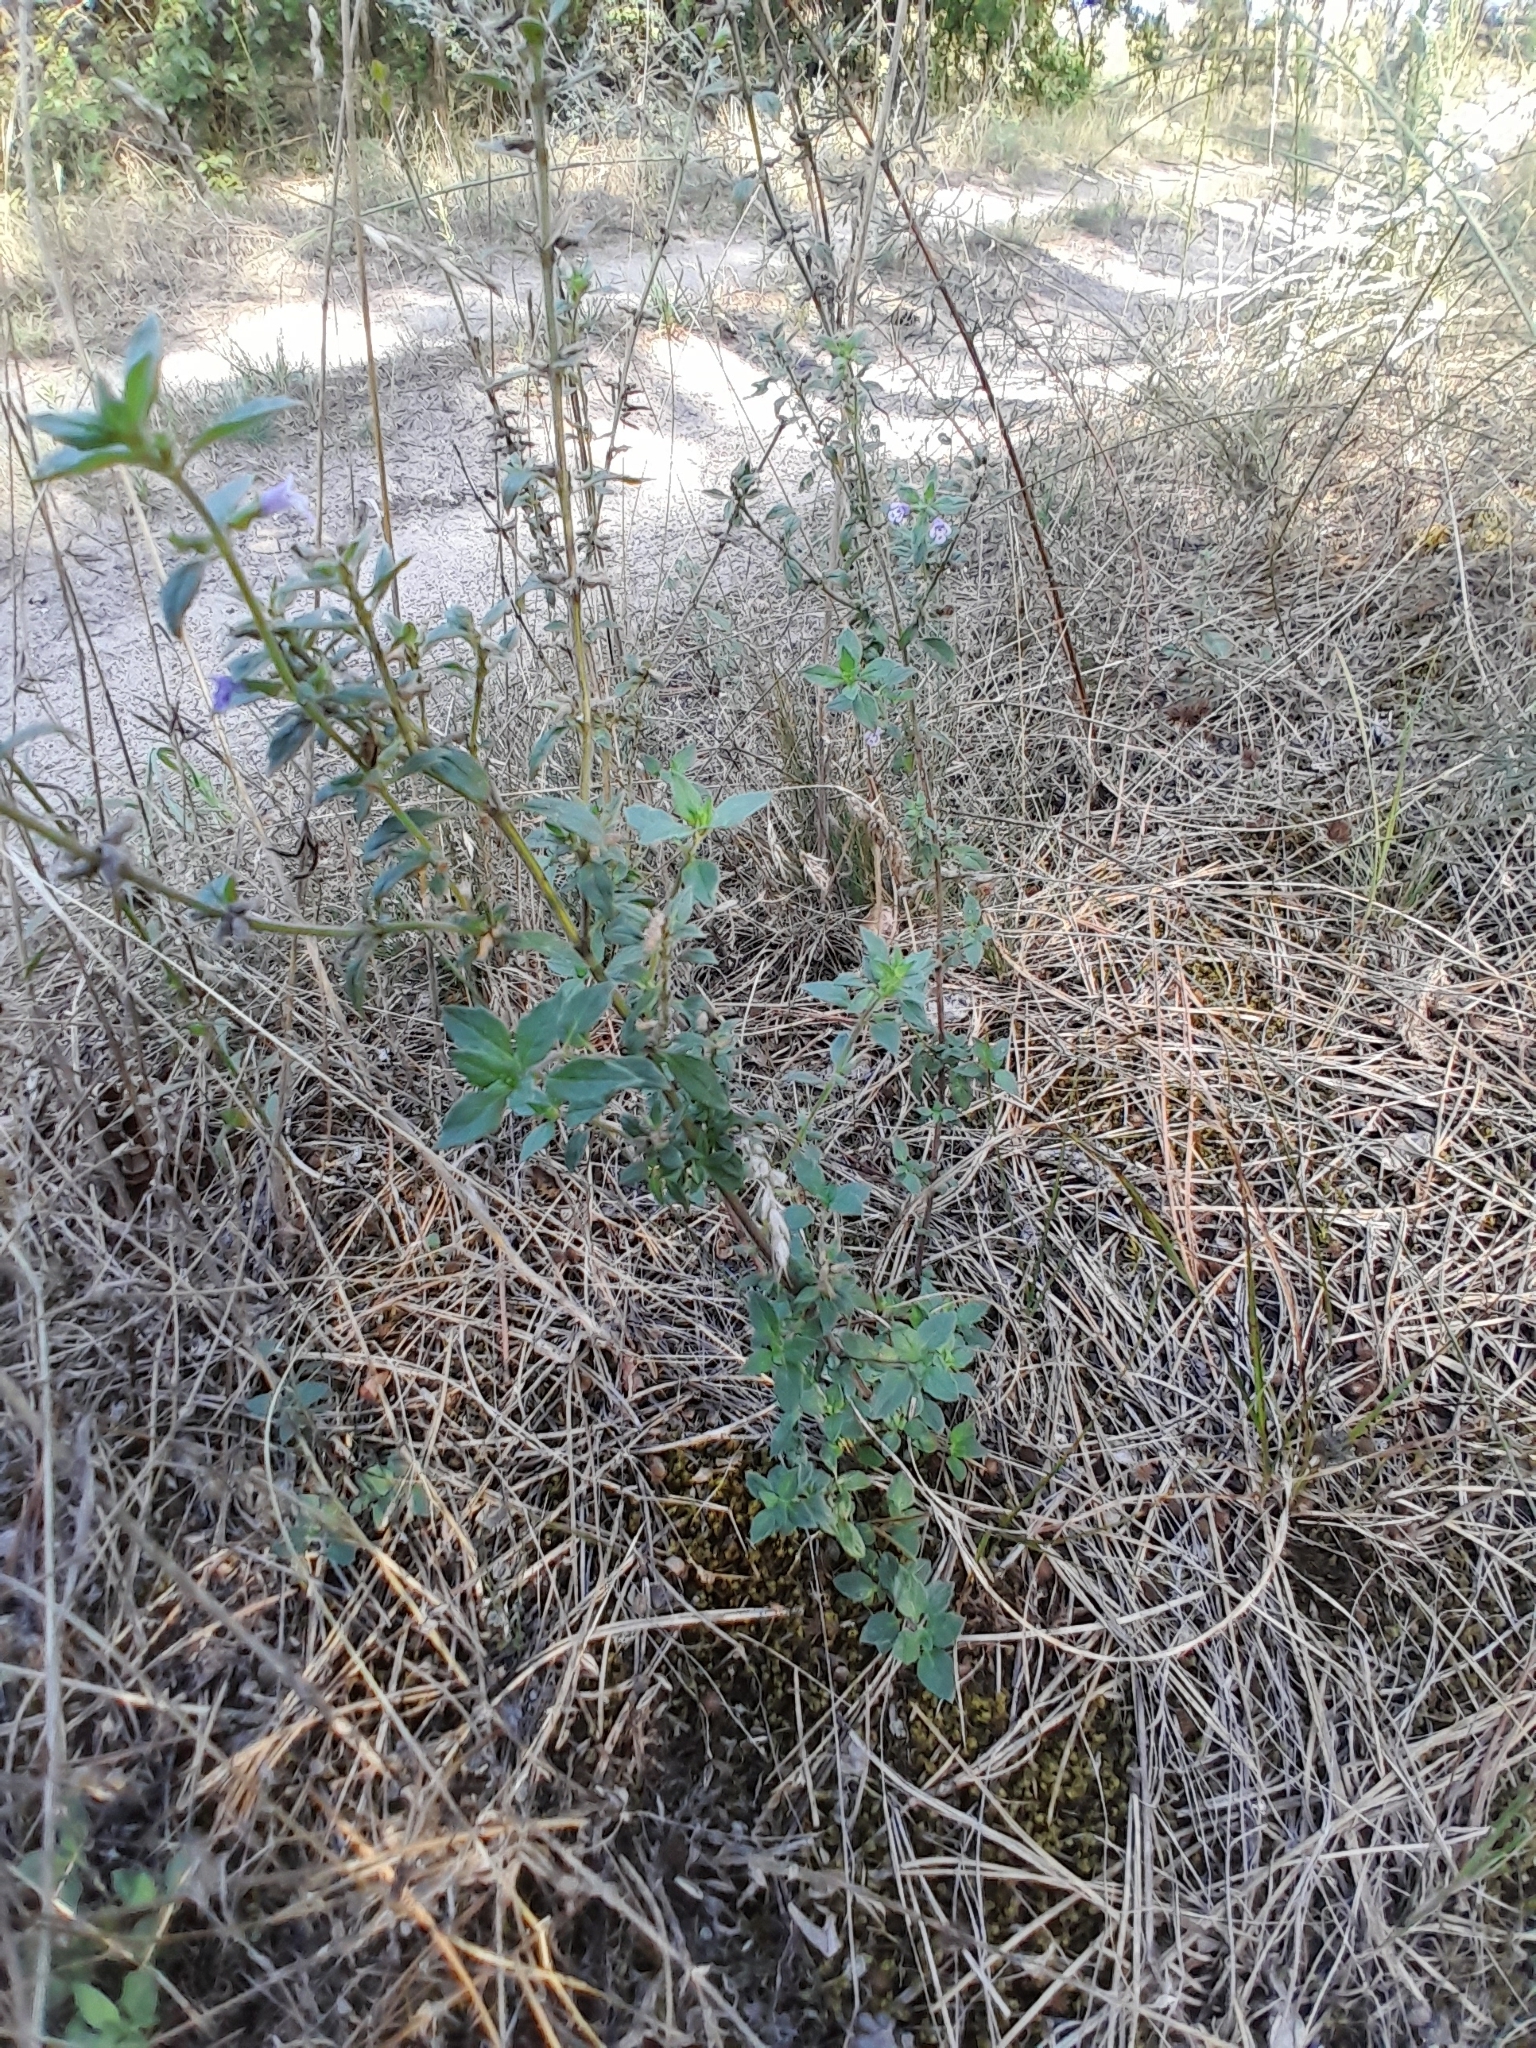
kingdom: Plantae
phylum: Tracheophyta
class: Magnoliopsida
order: Lamiales
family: Lamiaceae
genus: Clinopodium
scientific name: Clinopodium acinos
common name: Basil thyme
